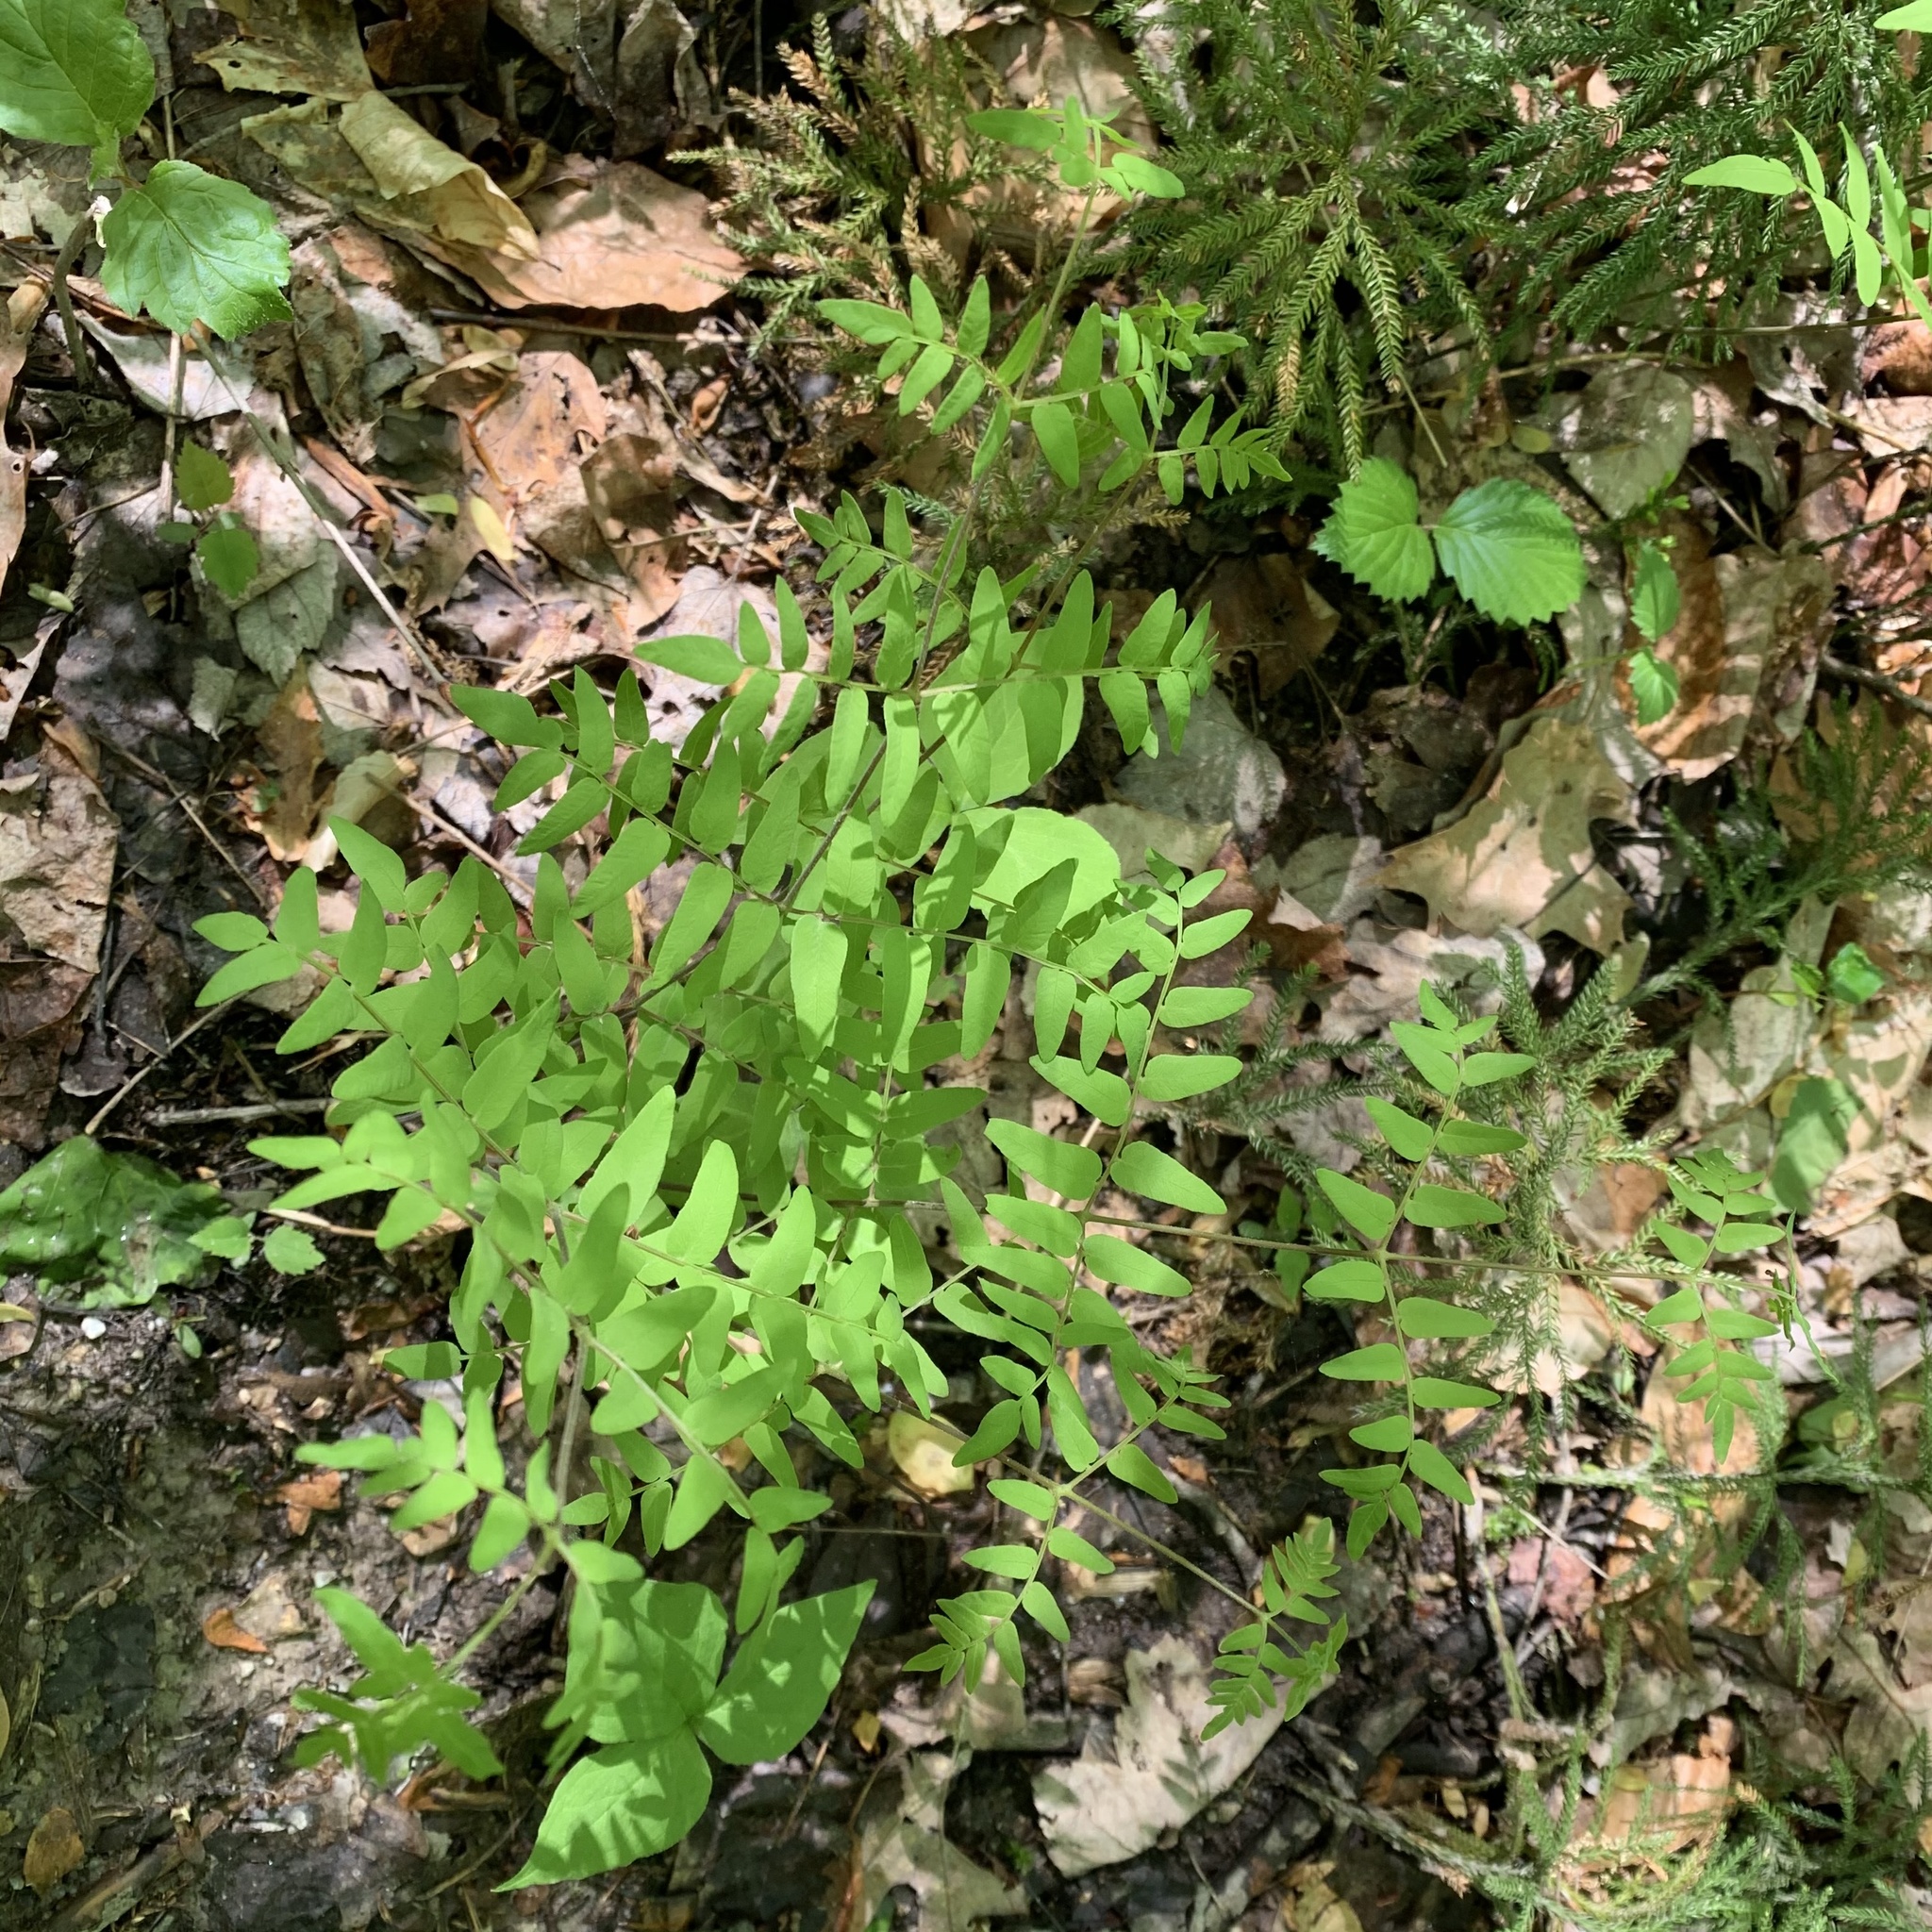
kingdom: Plantae
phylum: Tracheophyta
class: Polypodiopsida
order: Osmundales
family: Osmundaceae
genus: Osmunda
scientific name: Osmunda spectabilis
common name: American royal fern
